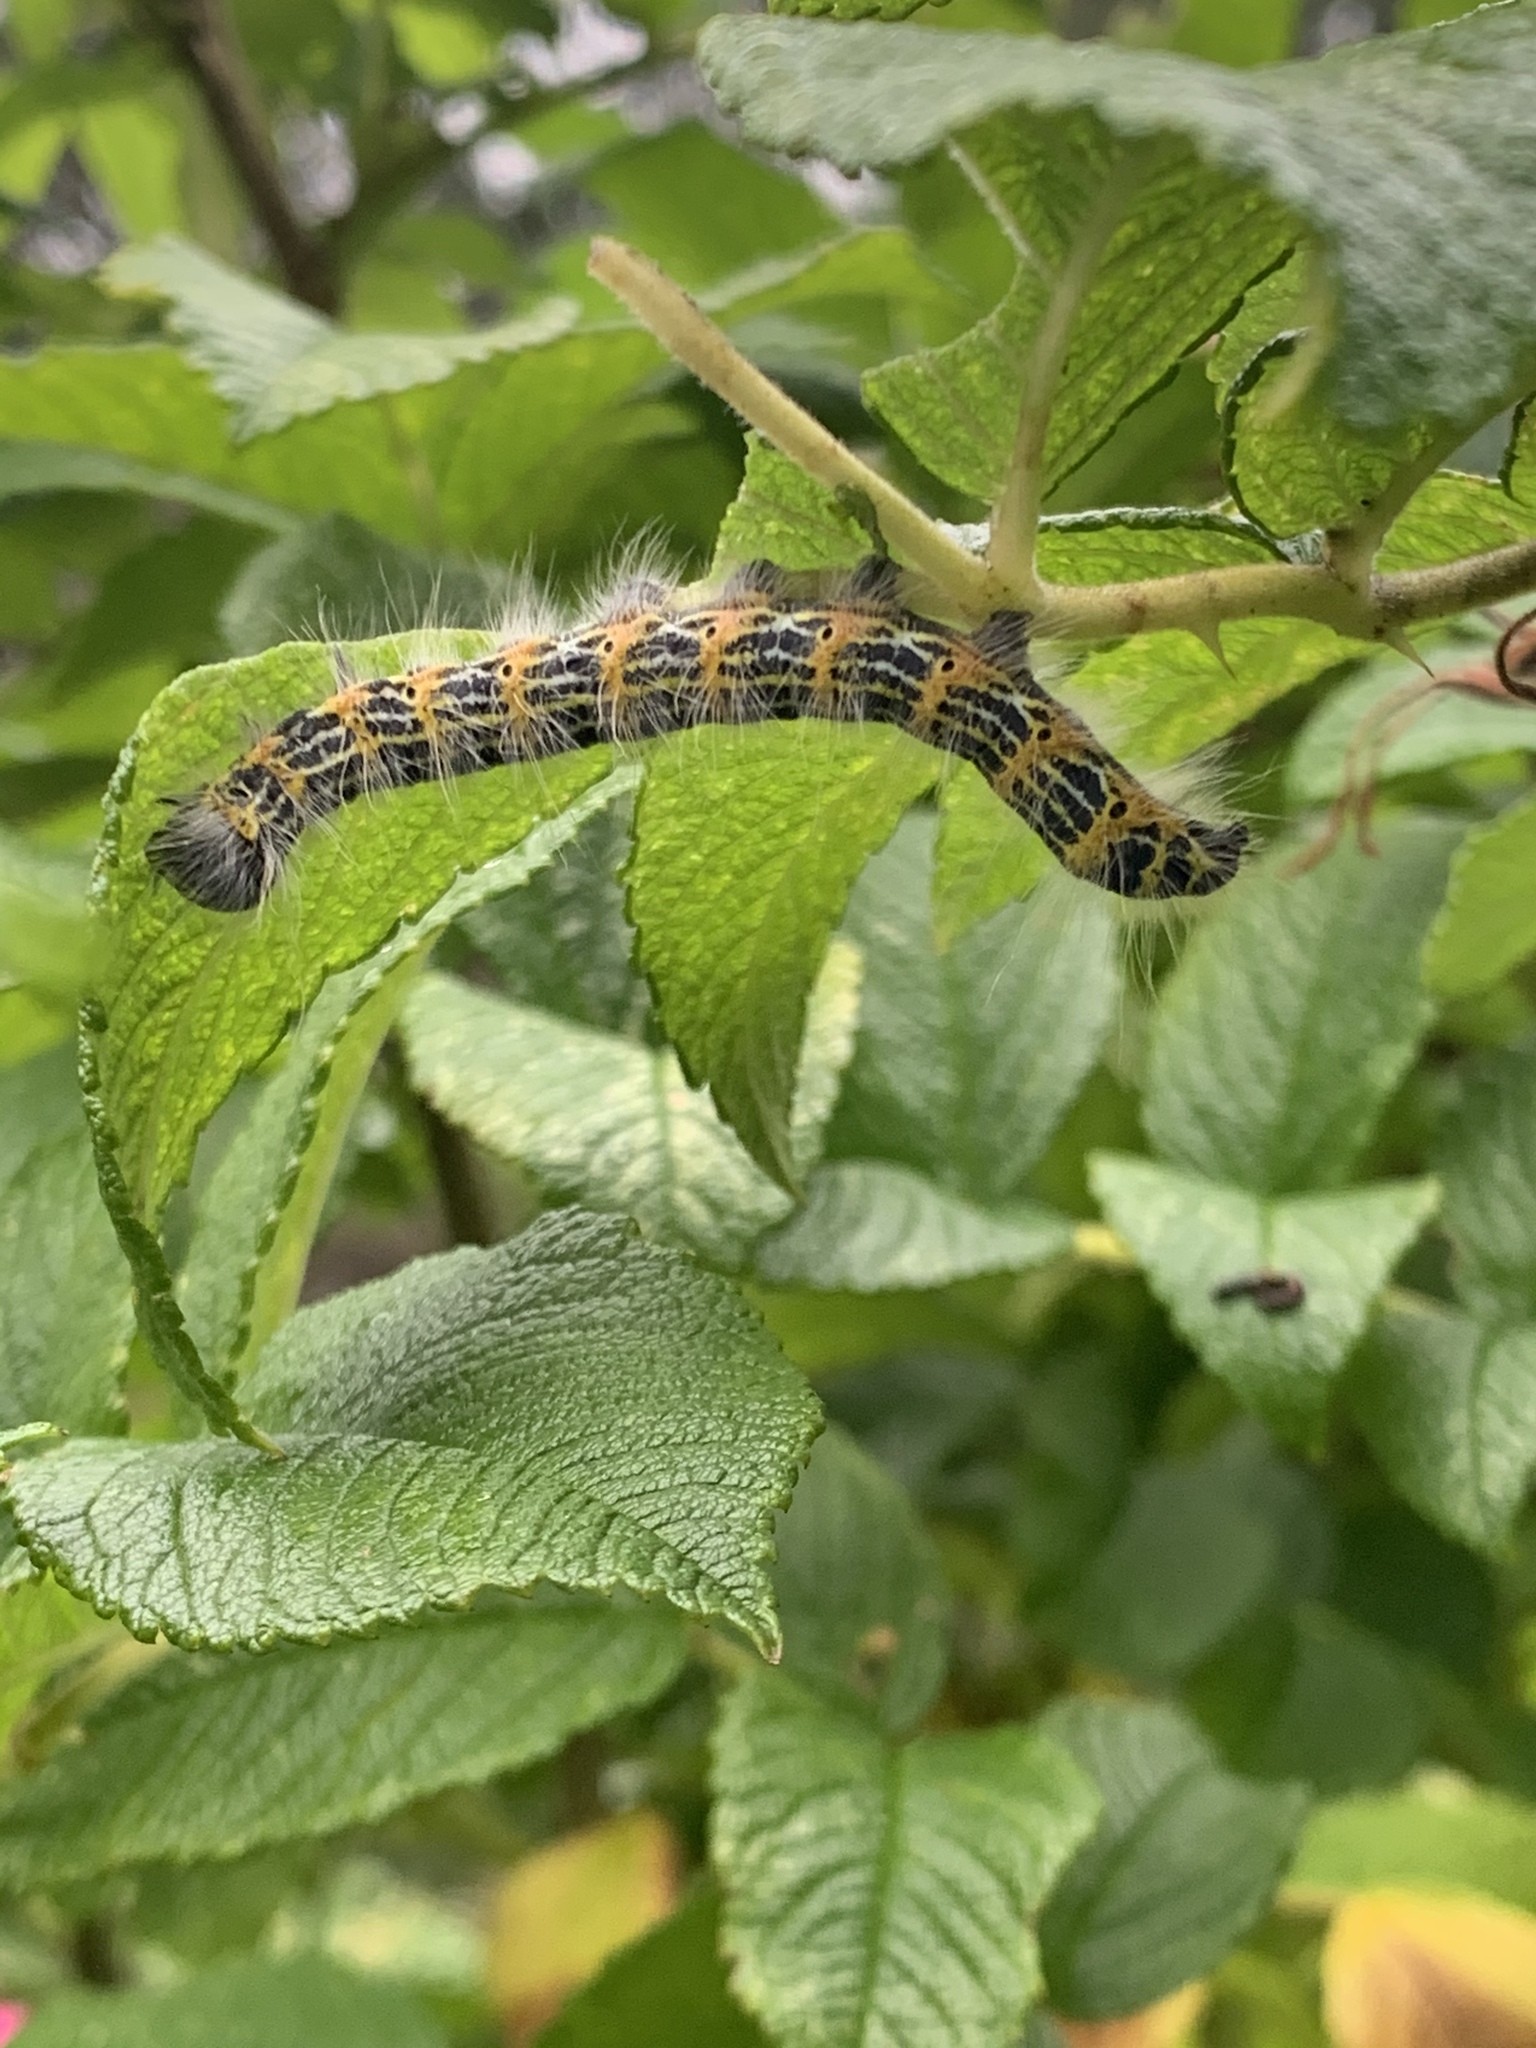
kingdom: Animalia
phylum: Arthropoda
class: Insecta
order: Lepidoptera
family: Notodontidae
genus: Phalera
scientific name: Phalera bucephala
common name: Buff-tip
